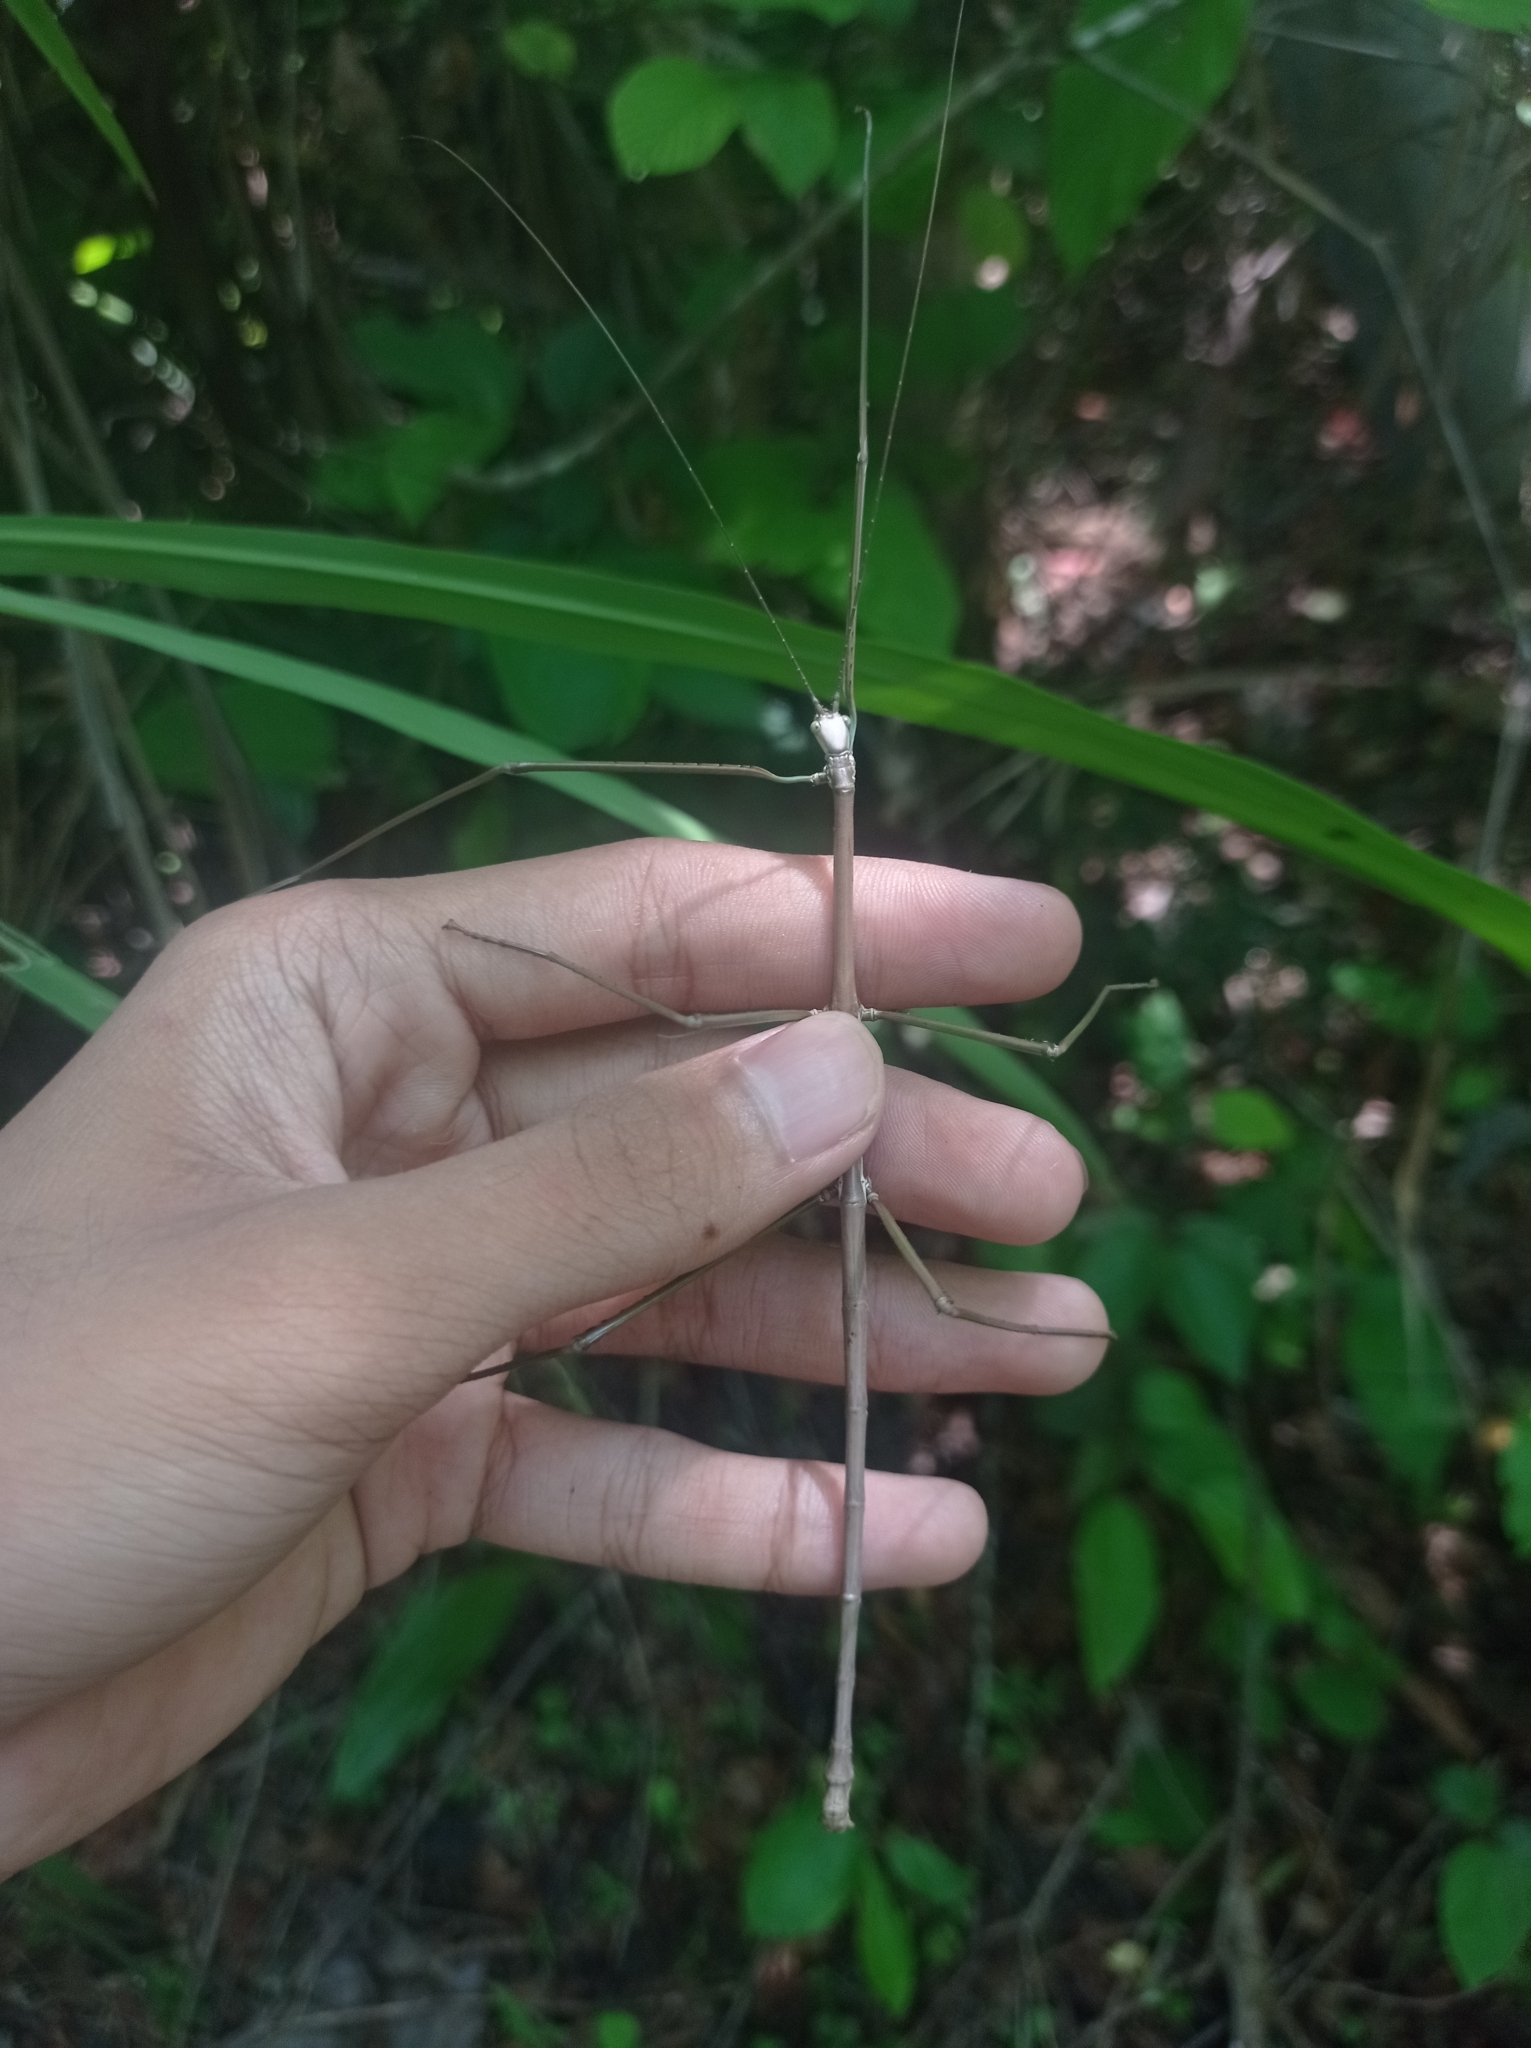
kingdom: Animalia
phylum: Arthropoda
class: Insecta
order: Phasmida
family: Phasmatidae
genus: Nesiophasma
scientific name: Nesiophasma
